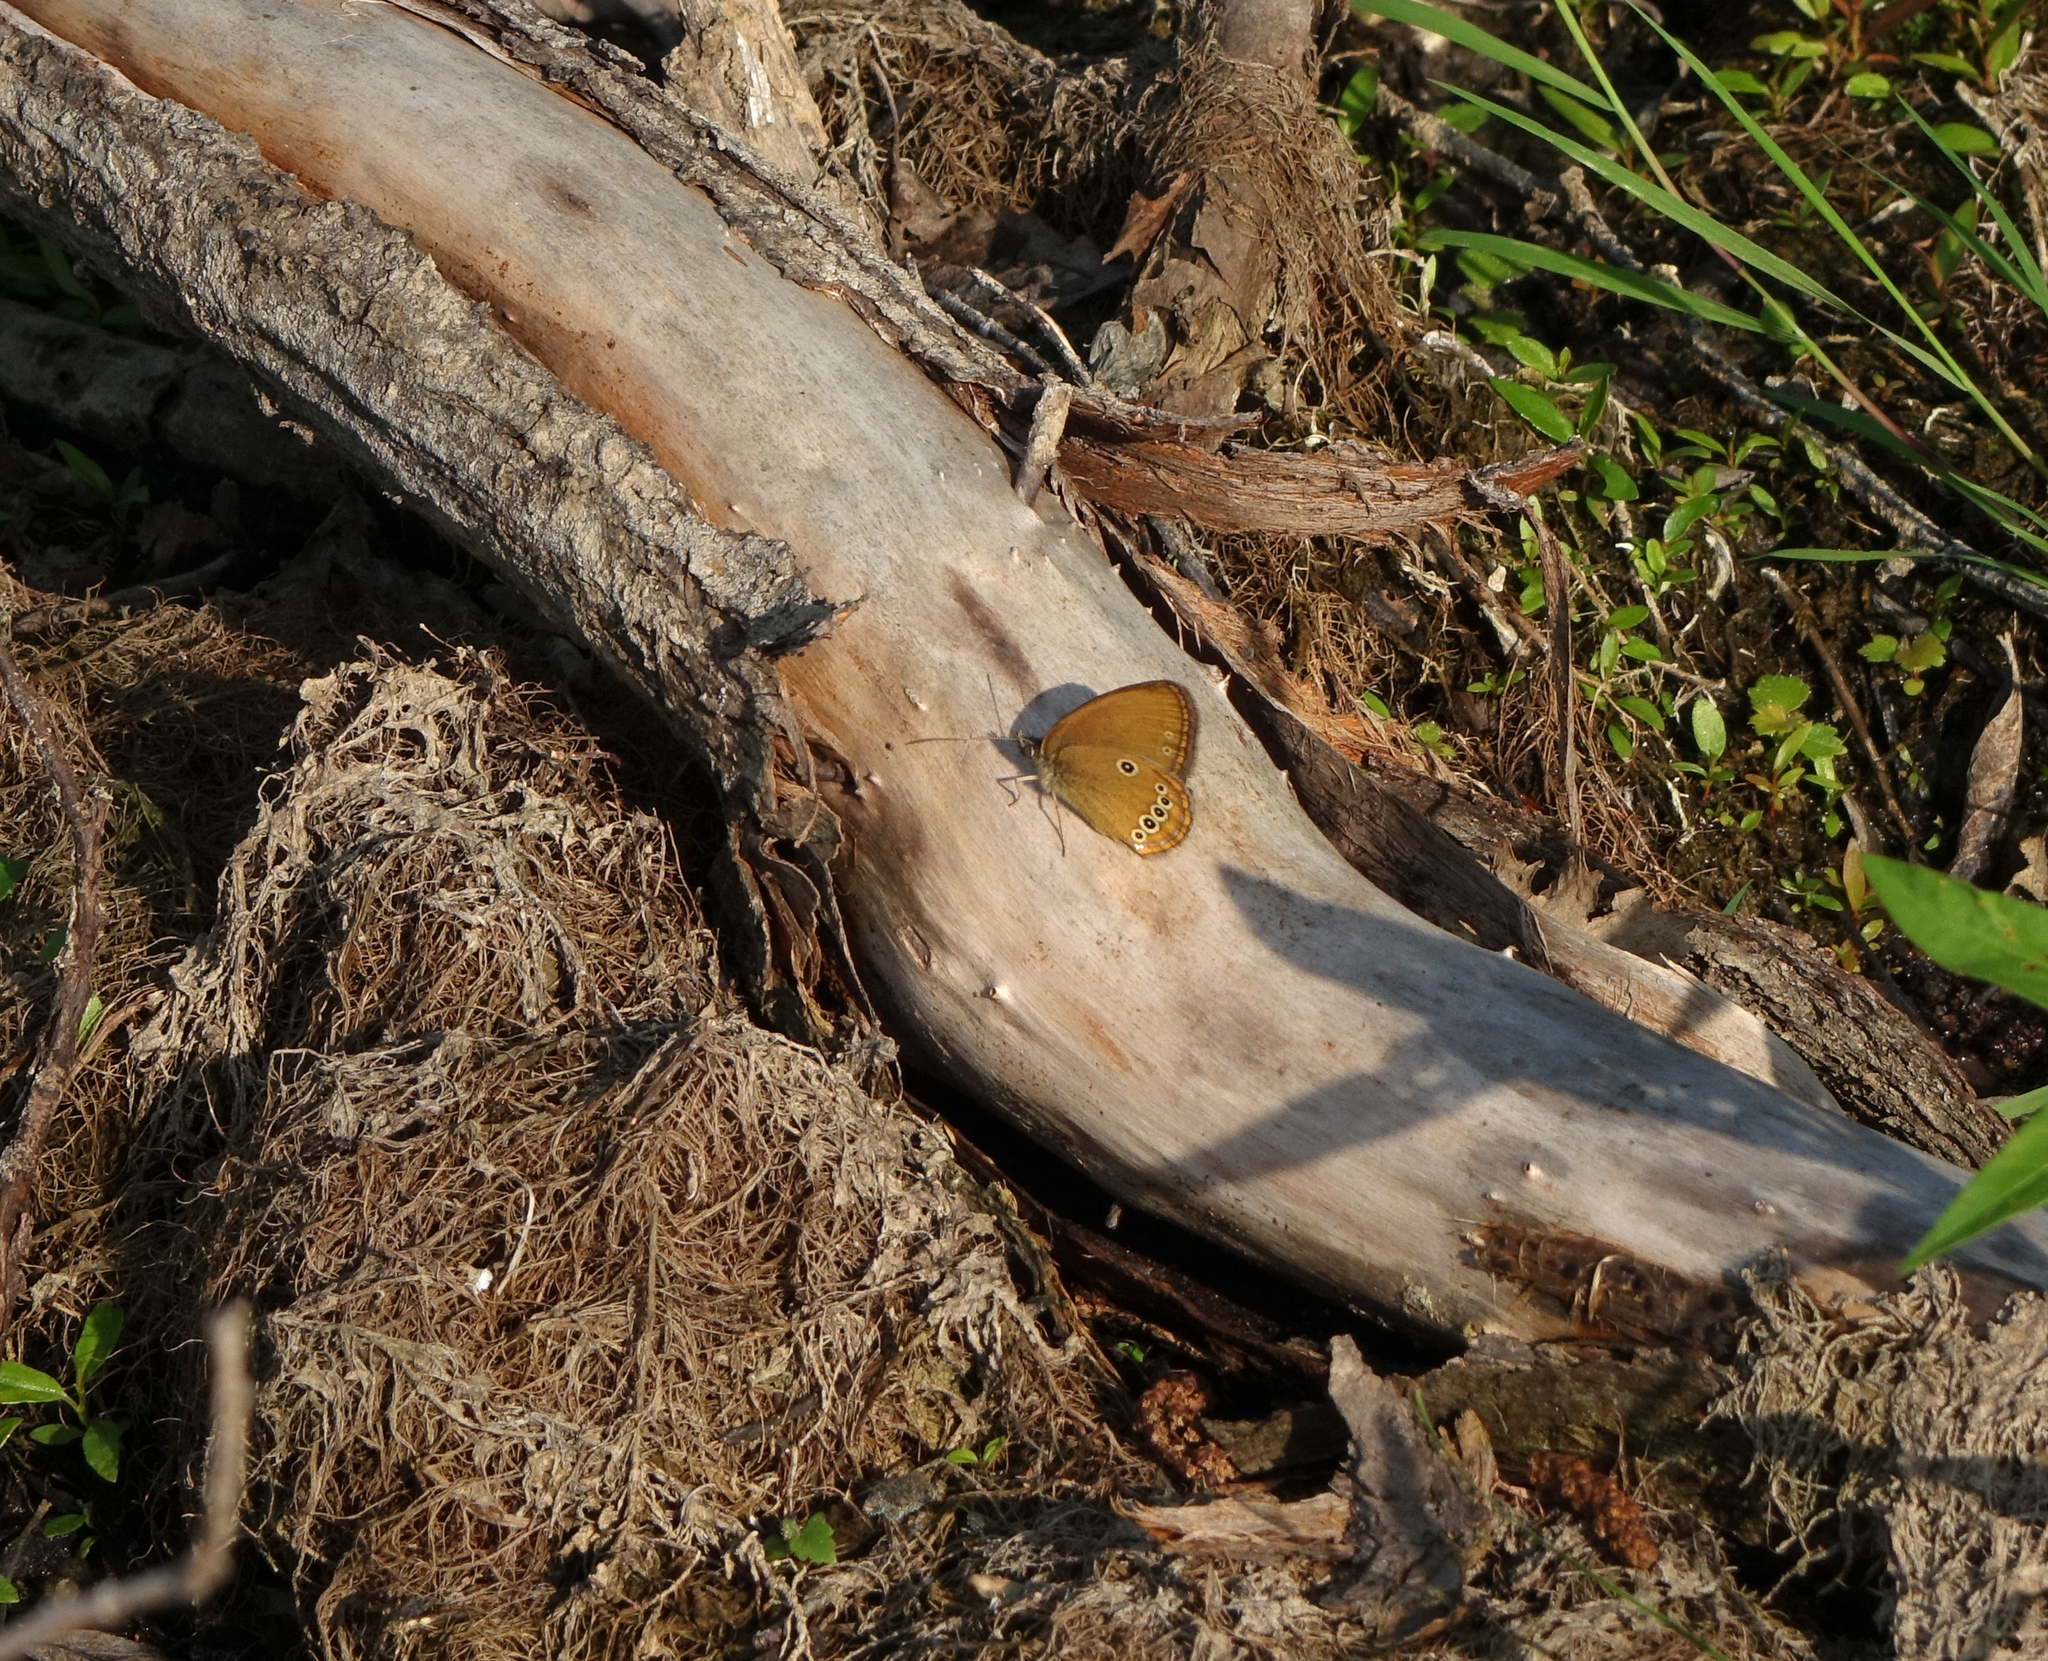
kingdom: Animalia
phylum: Arthropoda
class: Insecta
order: Lepidoptera
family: Nymphalidae
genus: Coenonympha
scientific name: Coenonympha oedippus
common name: False ringlet
